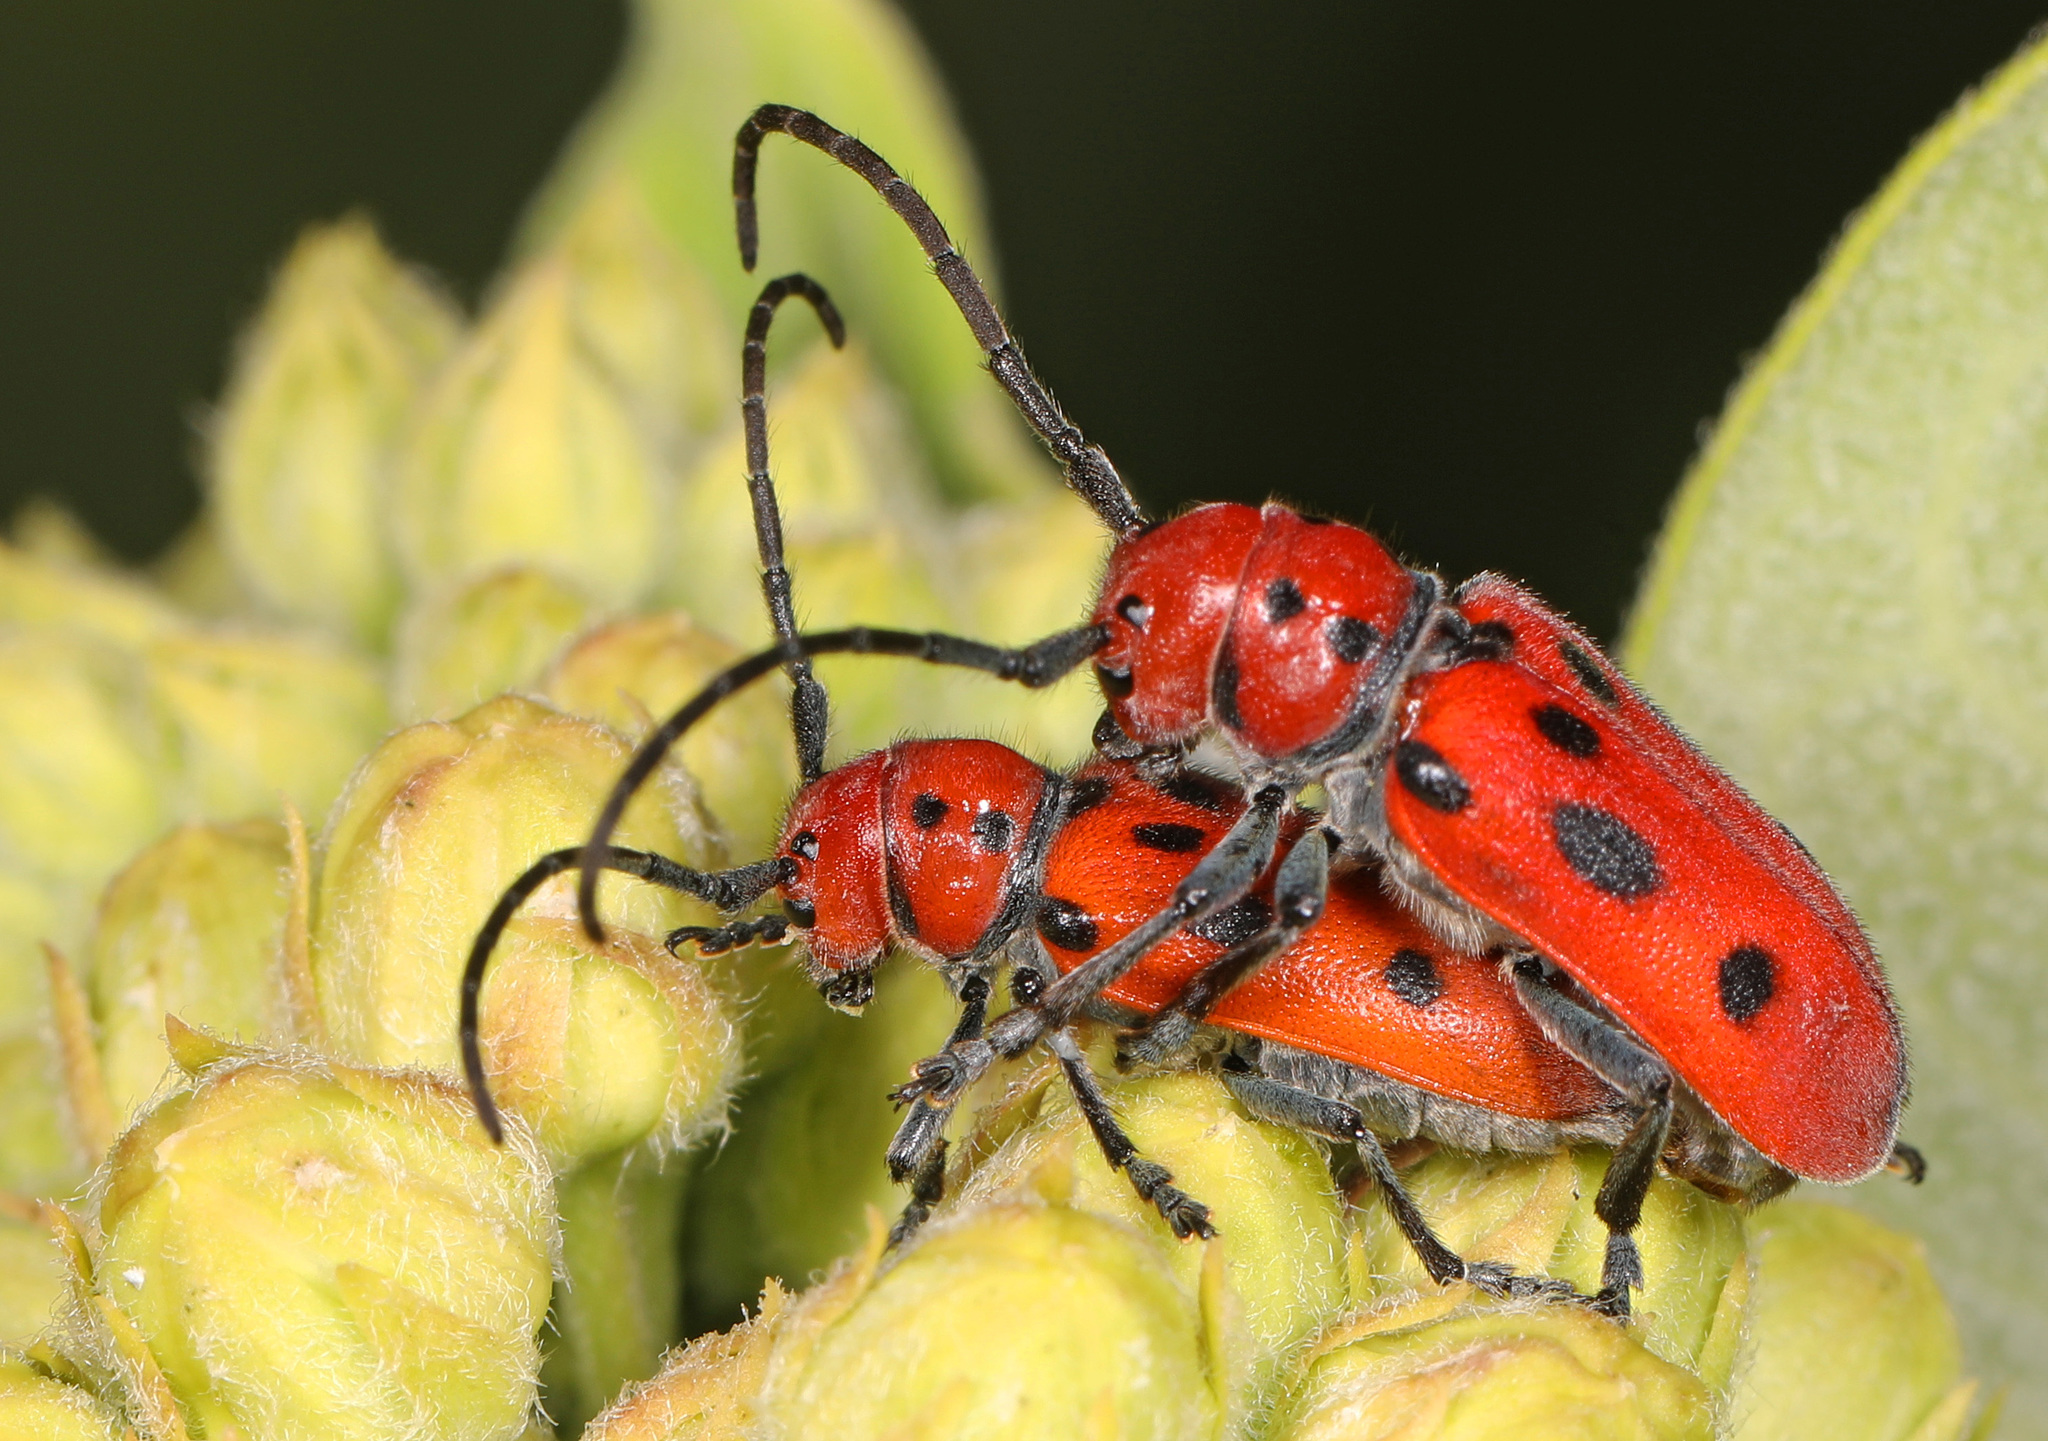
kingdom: Animalia
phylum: Arthropoda
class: Insecta
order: Coleoptera
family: Cerambycidae
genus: Tetraopes
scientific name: Tetraopes tetrophthalmus
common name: Red milkweed beetle
